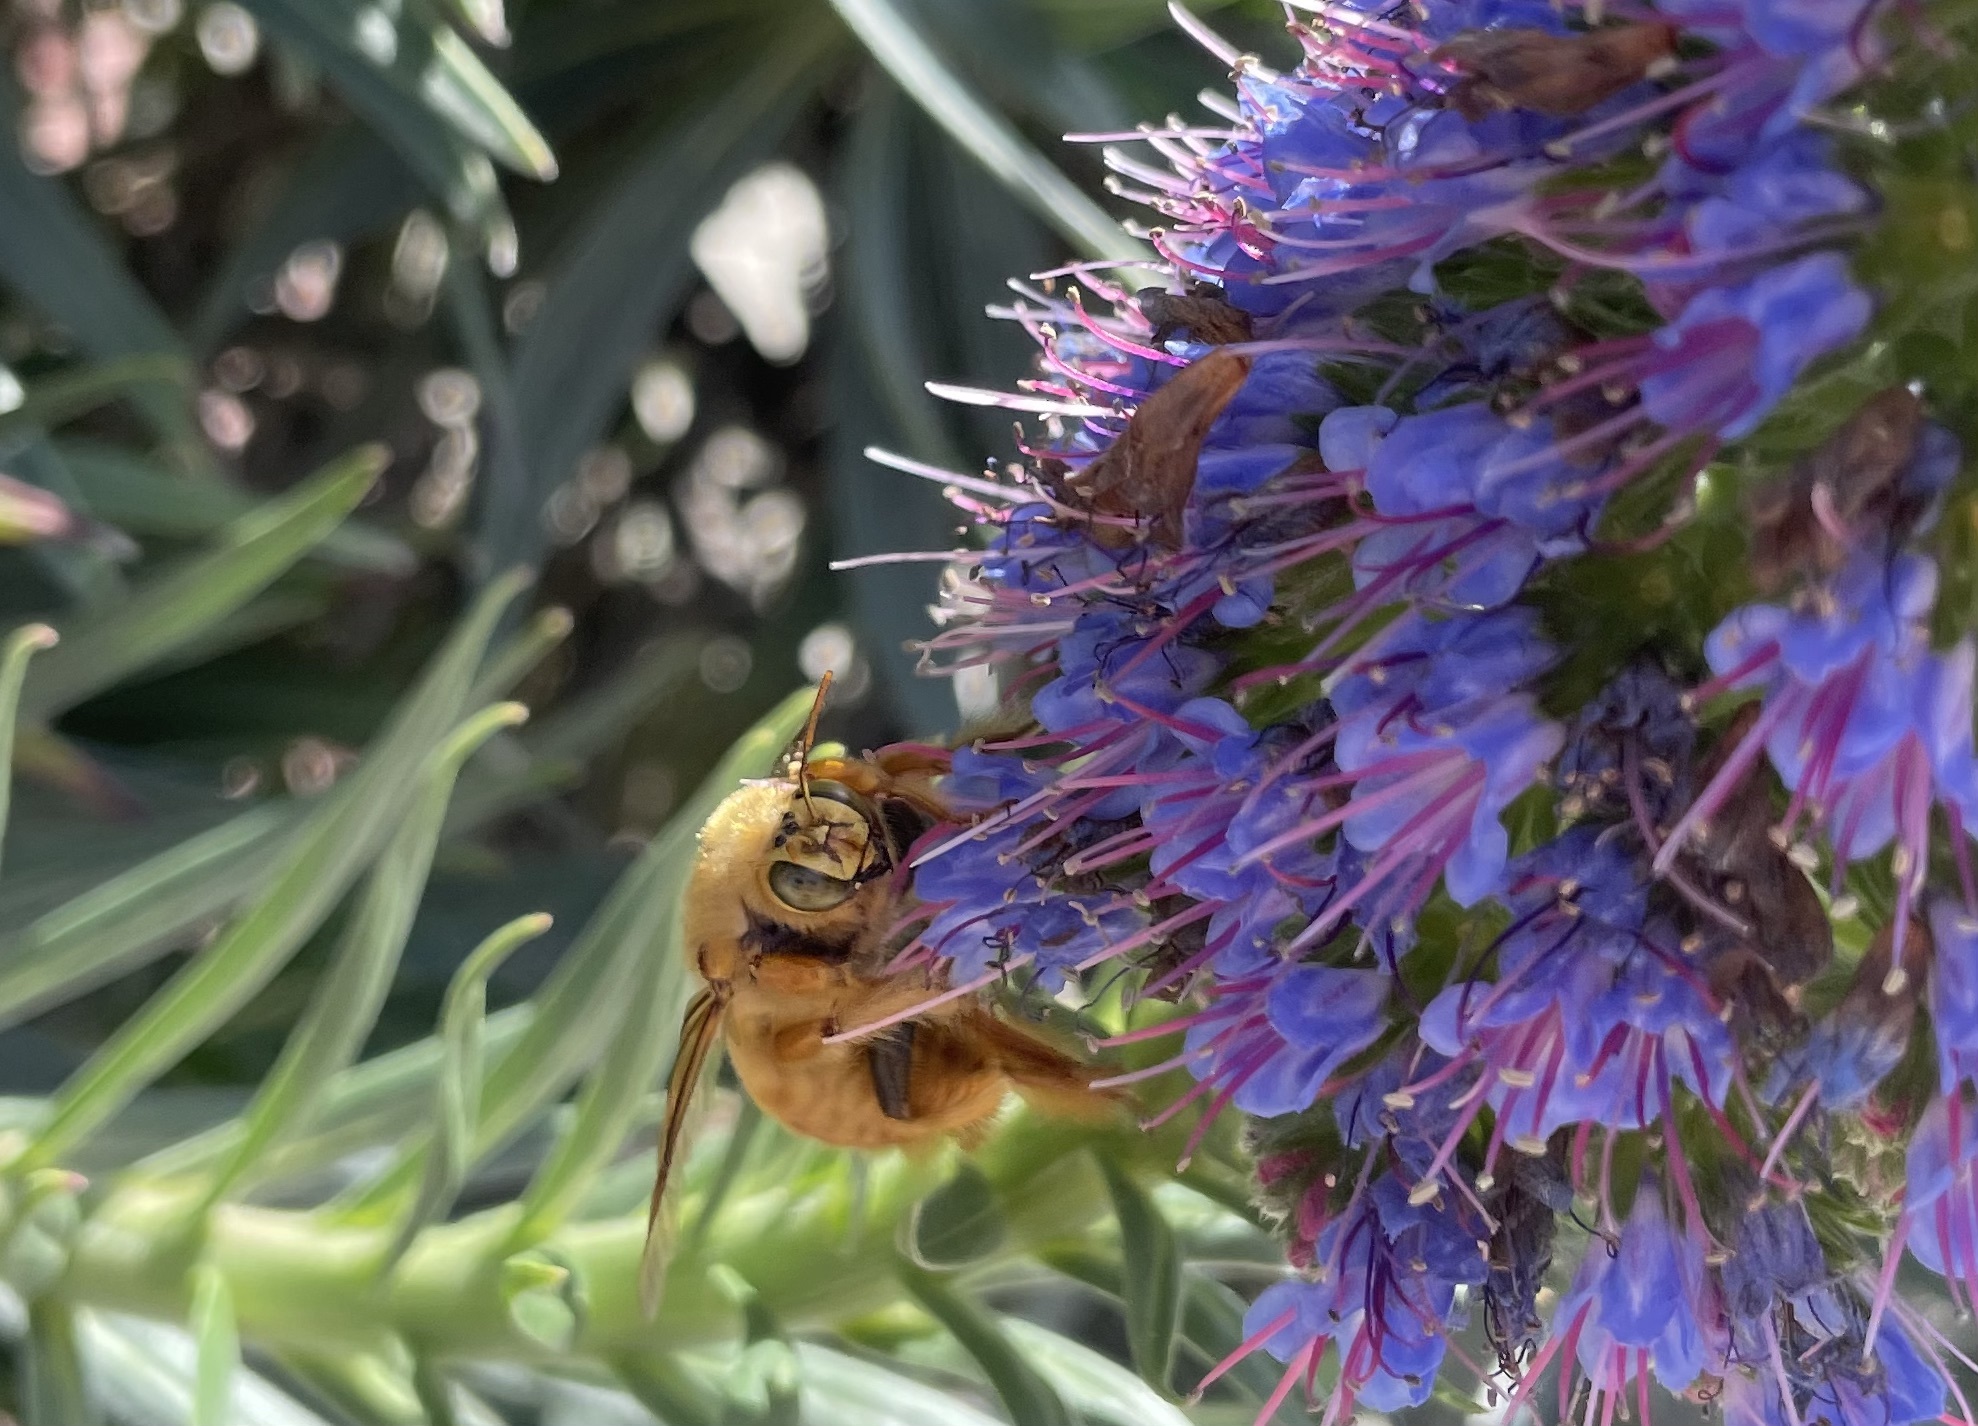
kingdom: Animalia
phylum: Arthropoda
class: Insecta
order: Hymenoptera
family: Apidae
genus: Xylocopa
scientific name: Xylocopa sonorina
